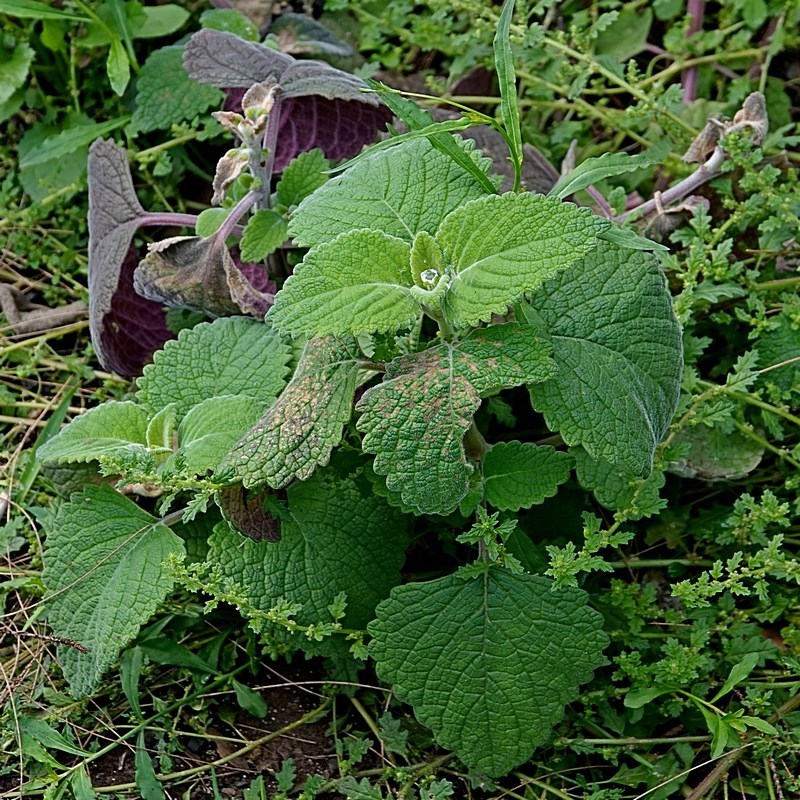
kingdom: Plantae
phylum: Tracheophyta
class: Magnoliopsida
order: Lamiales
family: Lamiaceae
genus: Coleus
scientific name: Coleus graveolens
